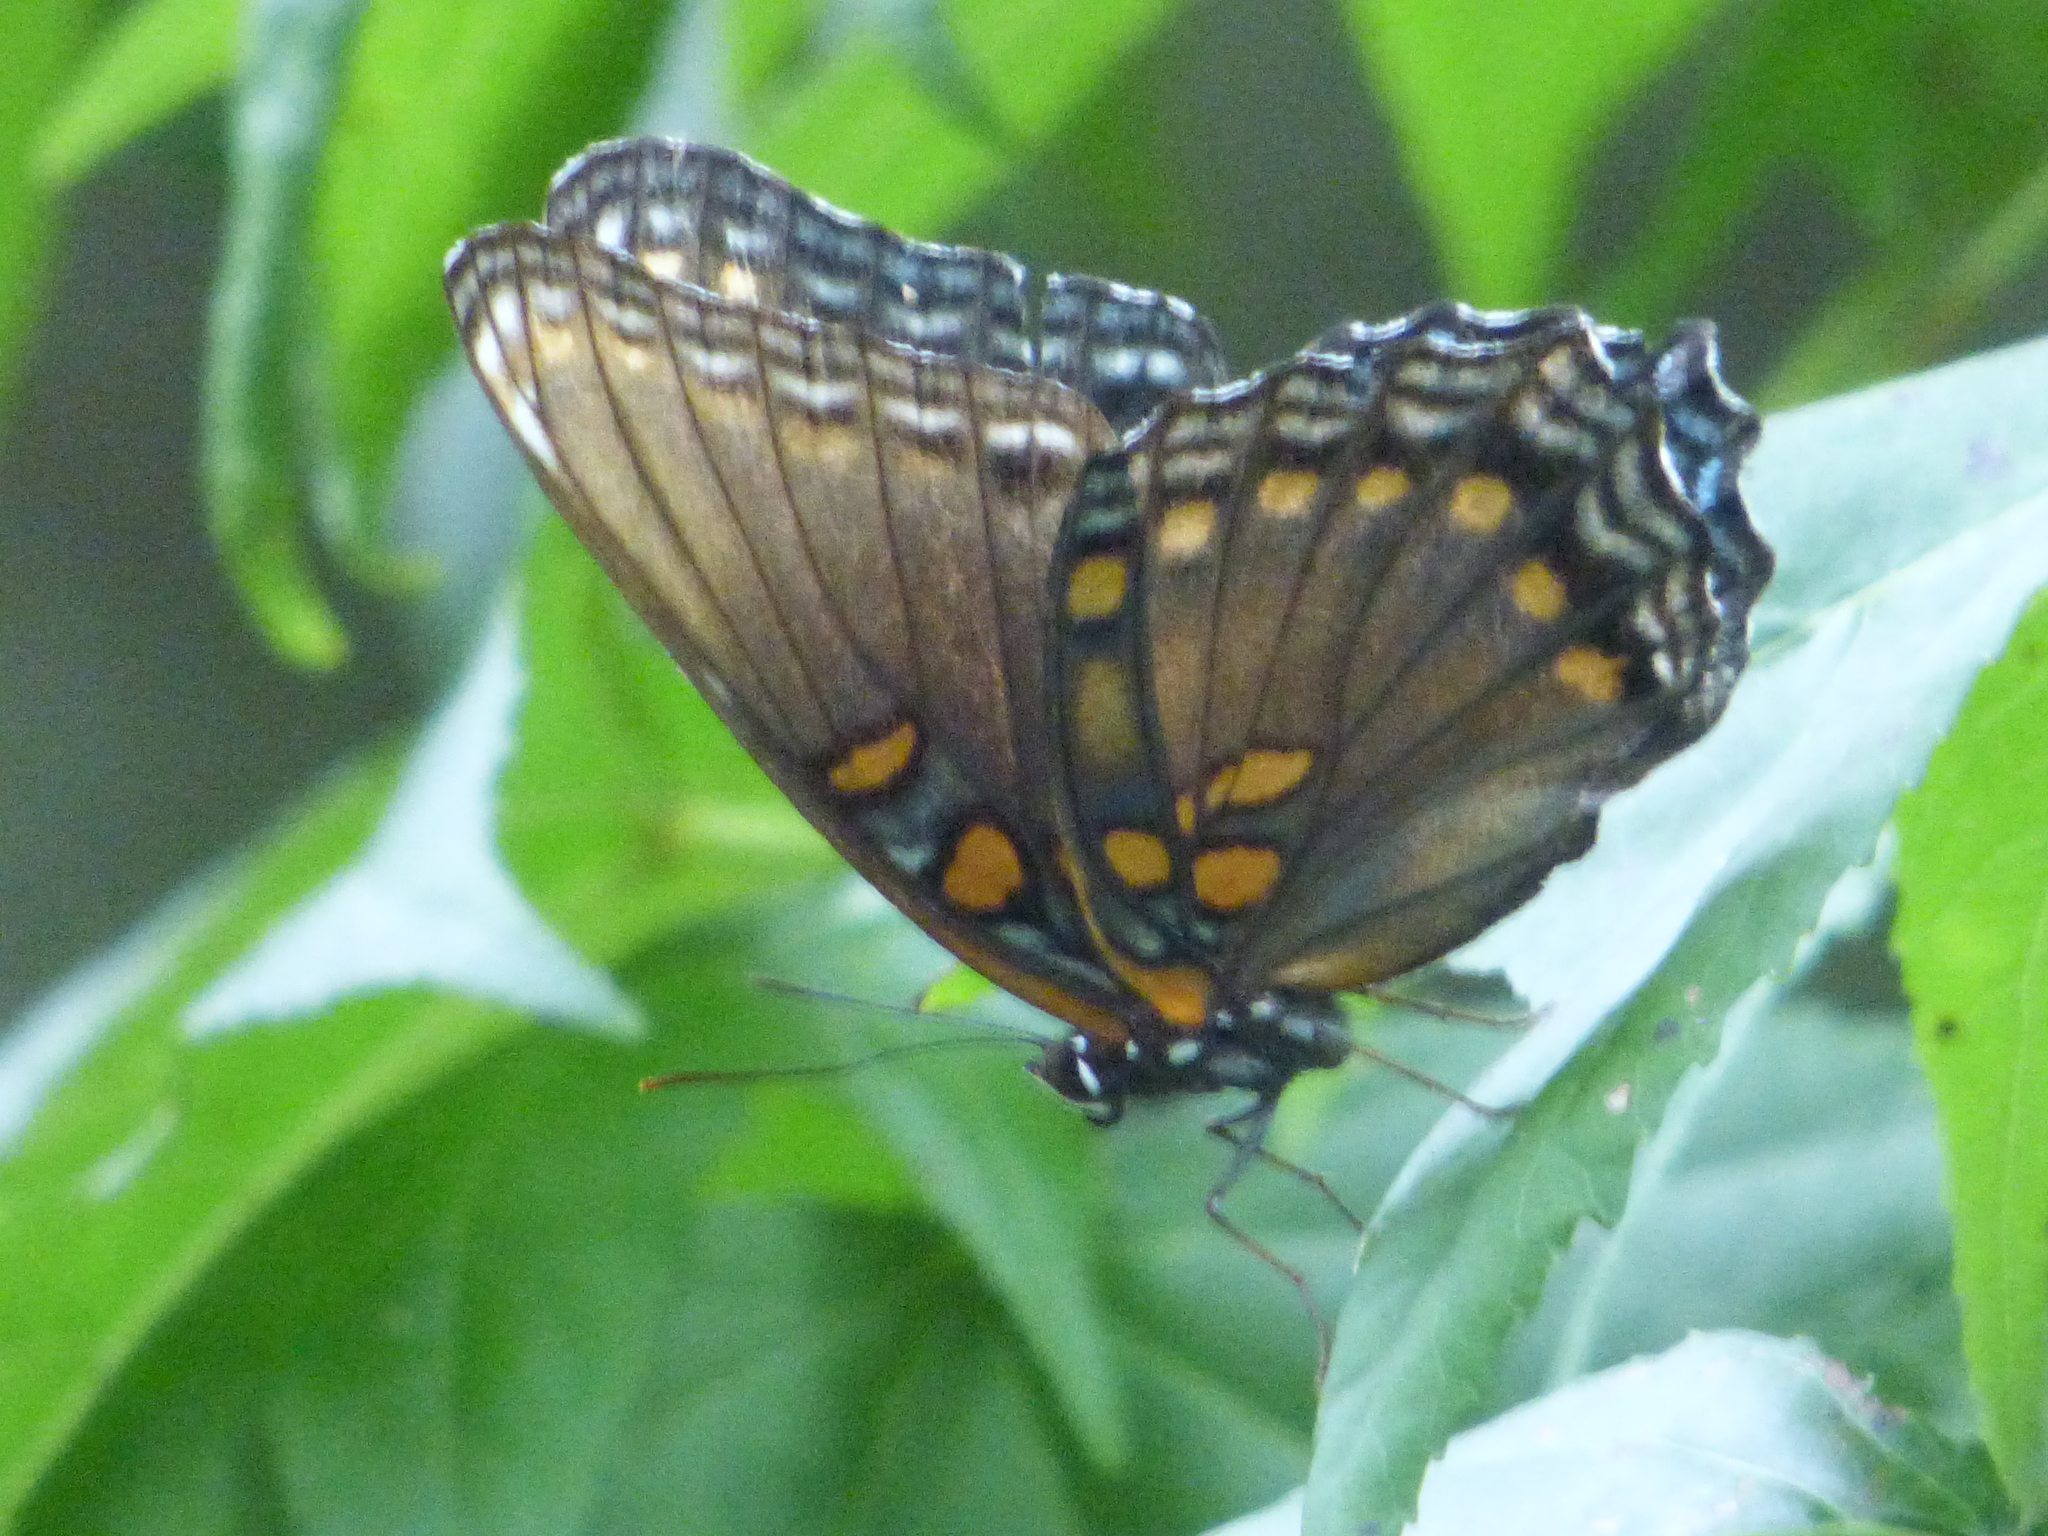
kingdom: Animalia
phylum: Arthropoda
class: Insecta
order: Lepidoptera
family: Nymphalidae
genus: Limenitis
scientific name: Limenitis astyanax
